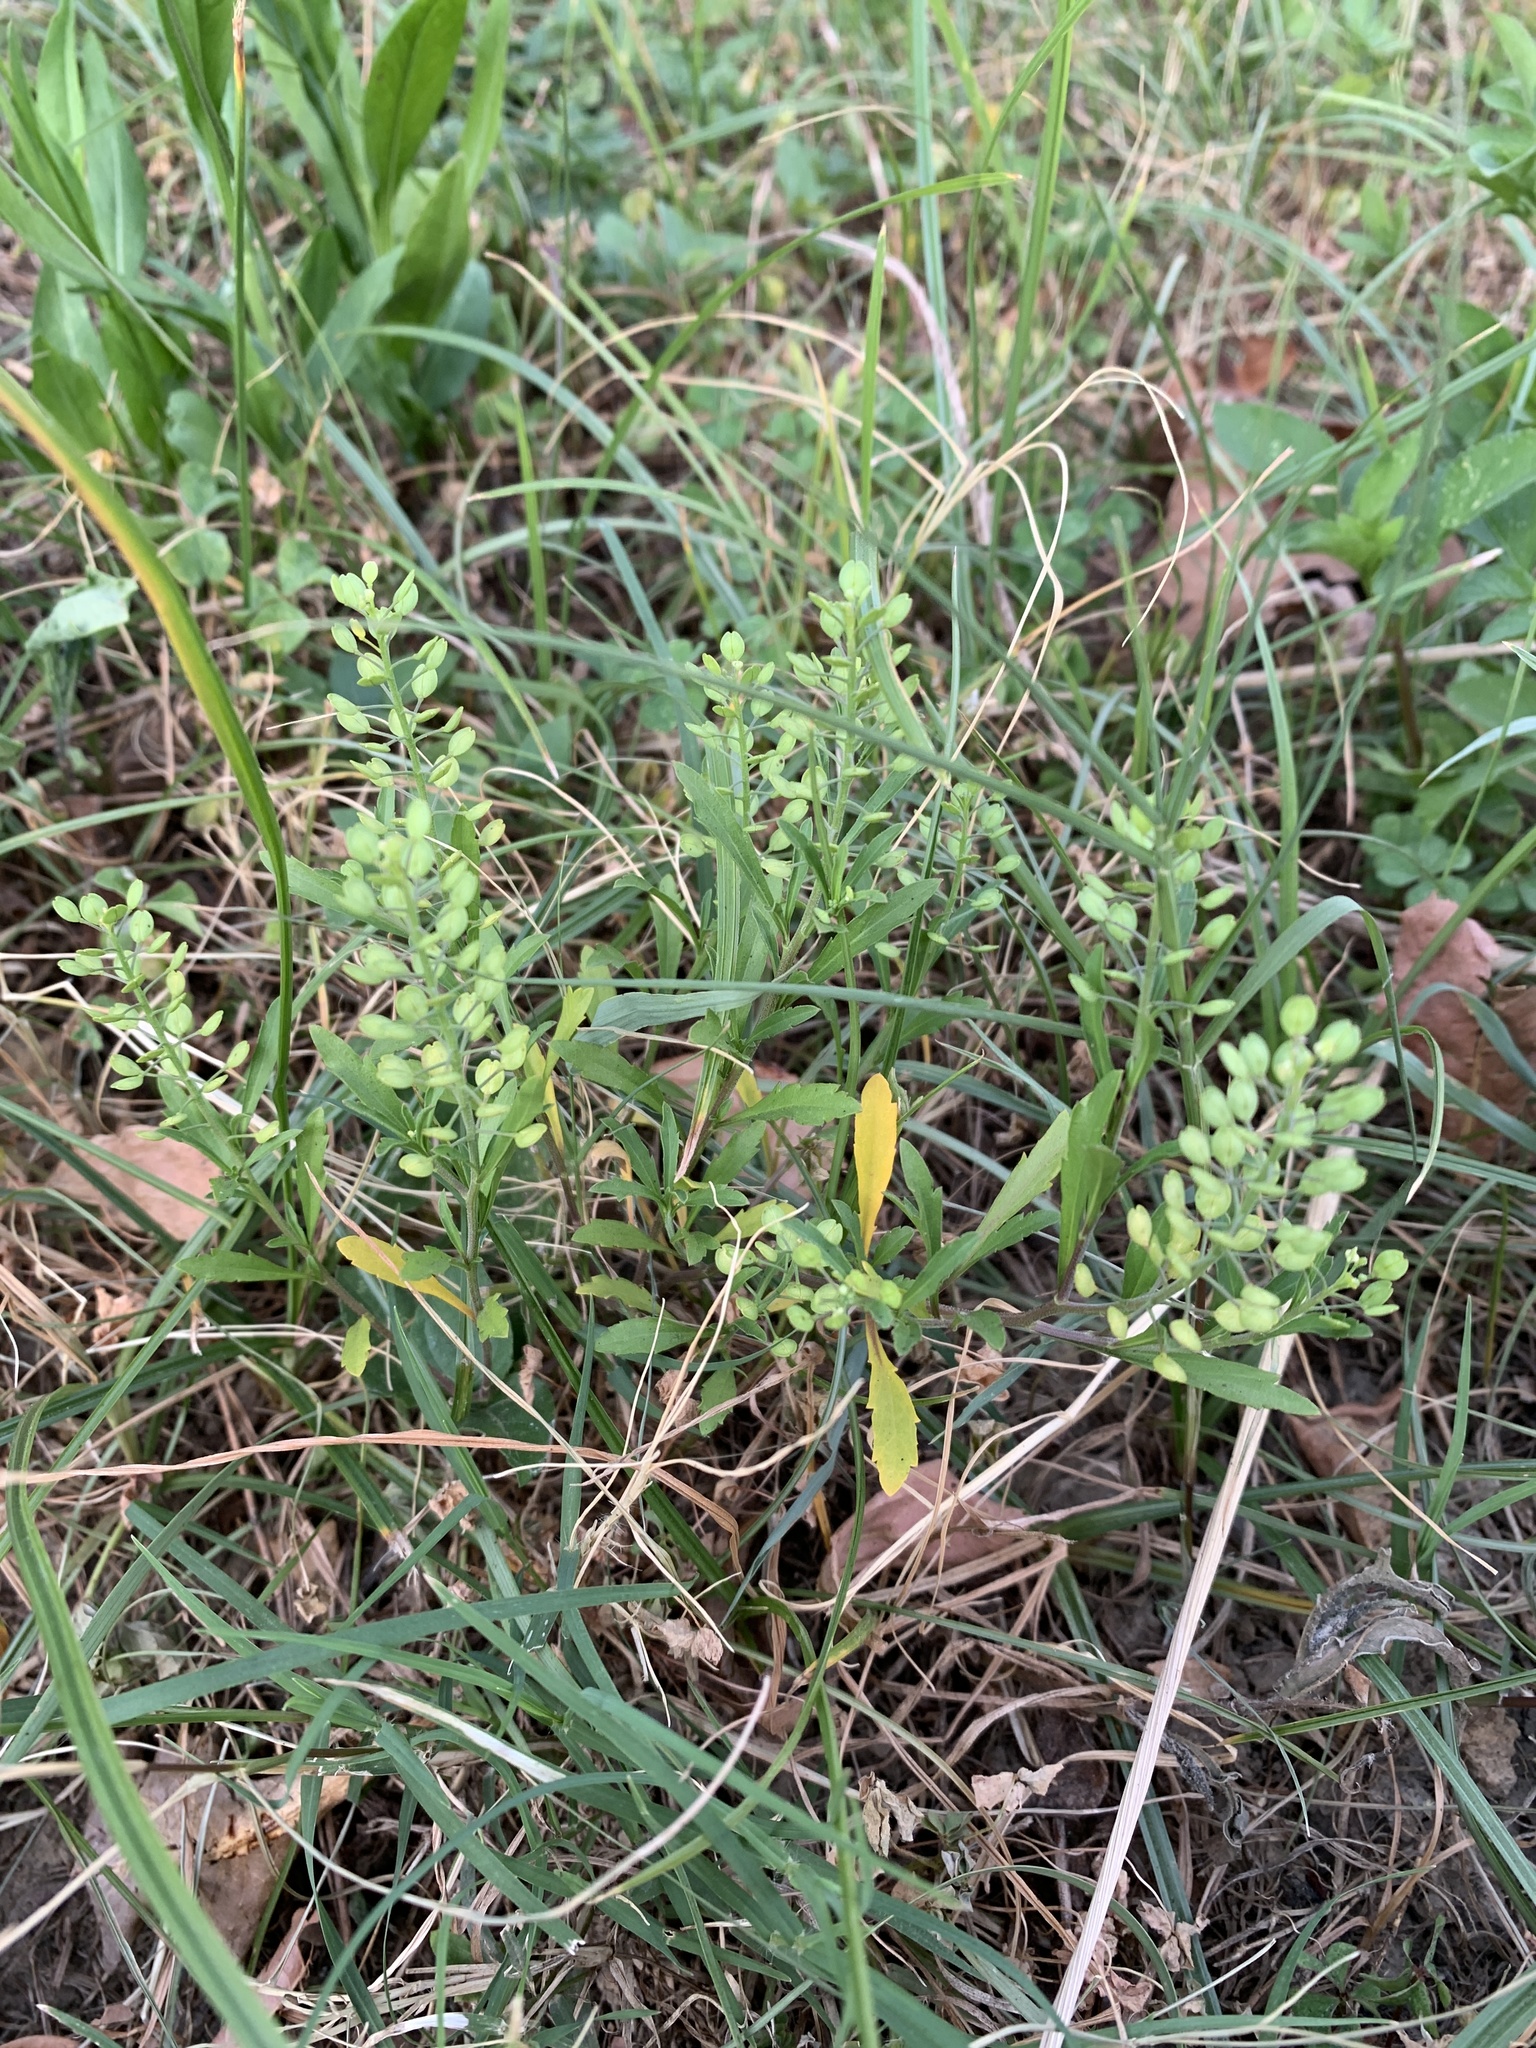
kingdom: Plantae
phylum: Tracheophyta
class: Magnoliopsida
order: Brassicales
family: Brassicaceae
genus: Lepidium
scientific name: Lepidium virginicum
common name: Least pepperwort
